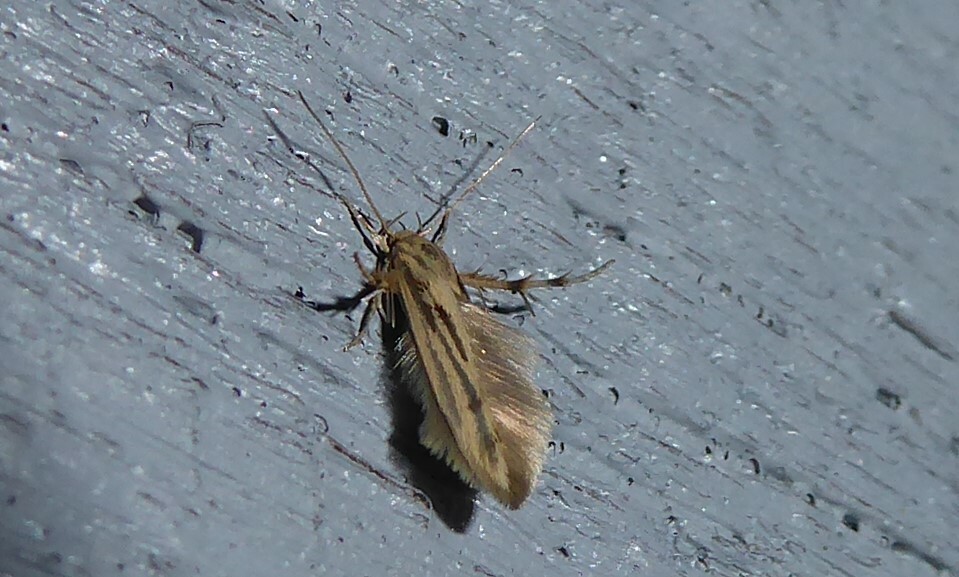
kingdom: Animalia
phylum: Arthropoda
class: Insecta
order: Lepidoptera
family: Stathmopodidae
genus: Stathmopoda
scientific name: Stathmopoda plumbiflua
